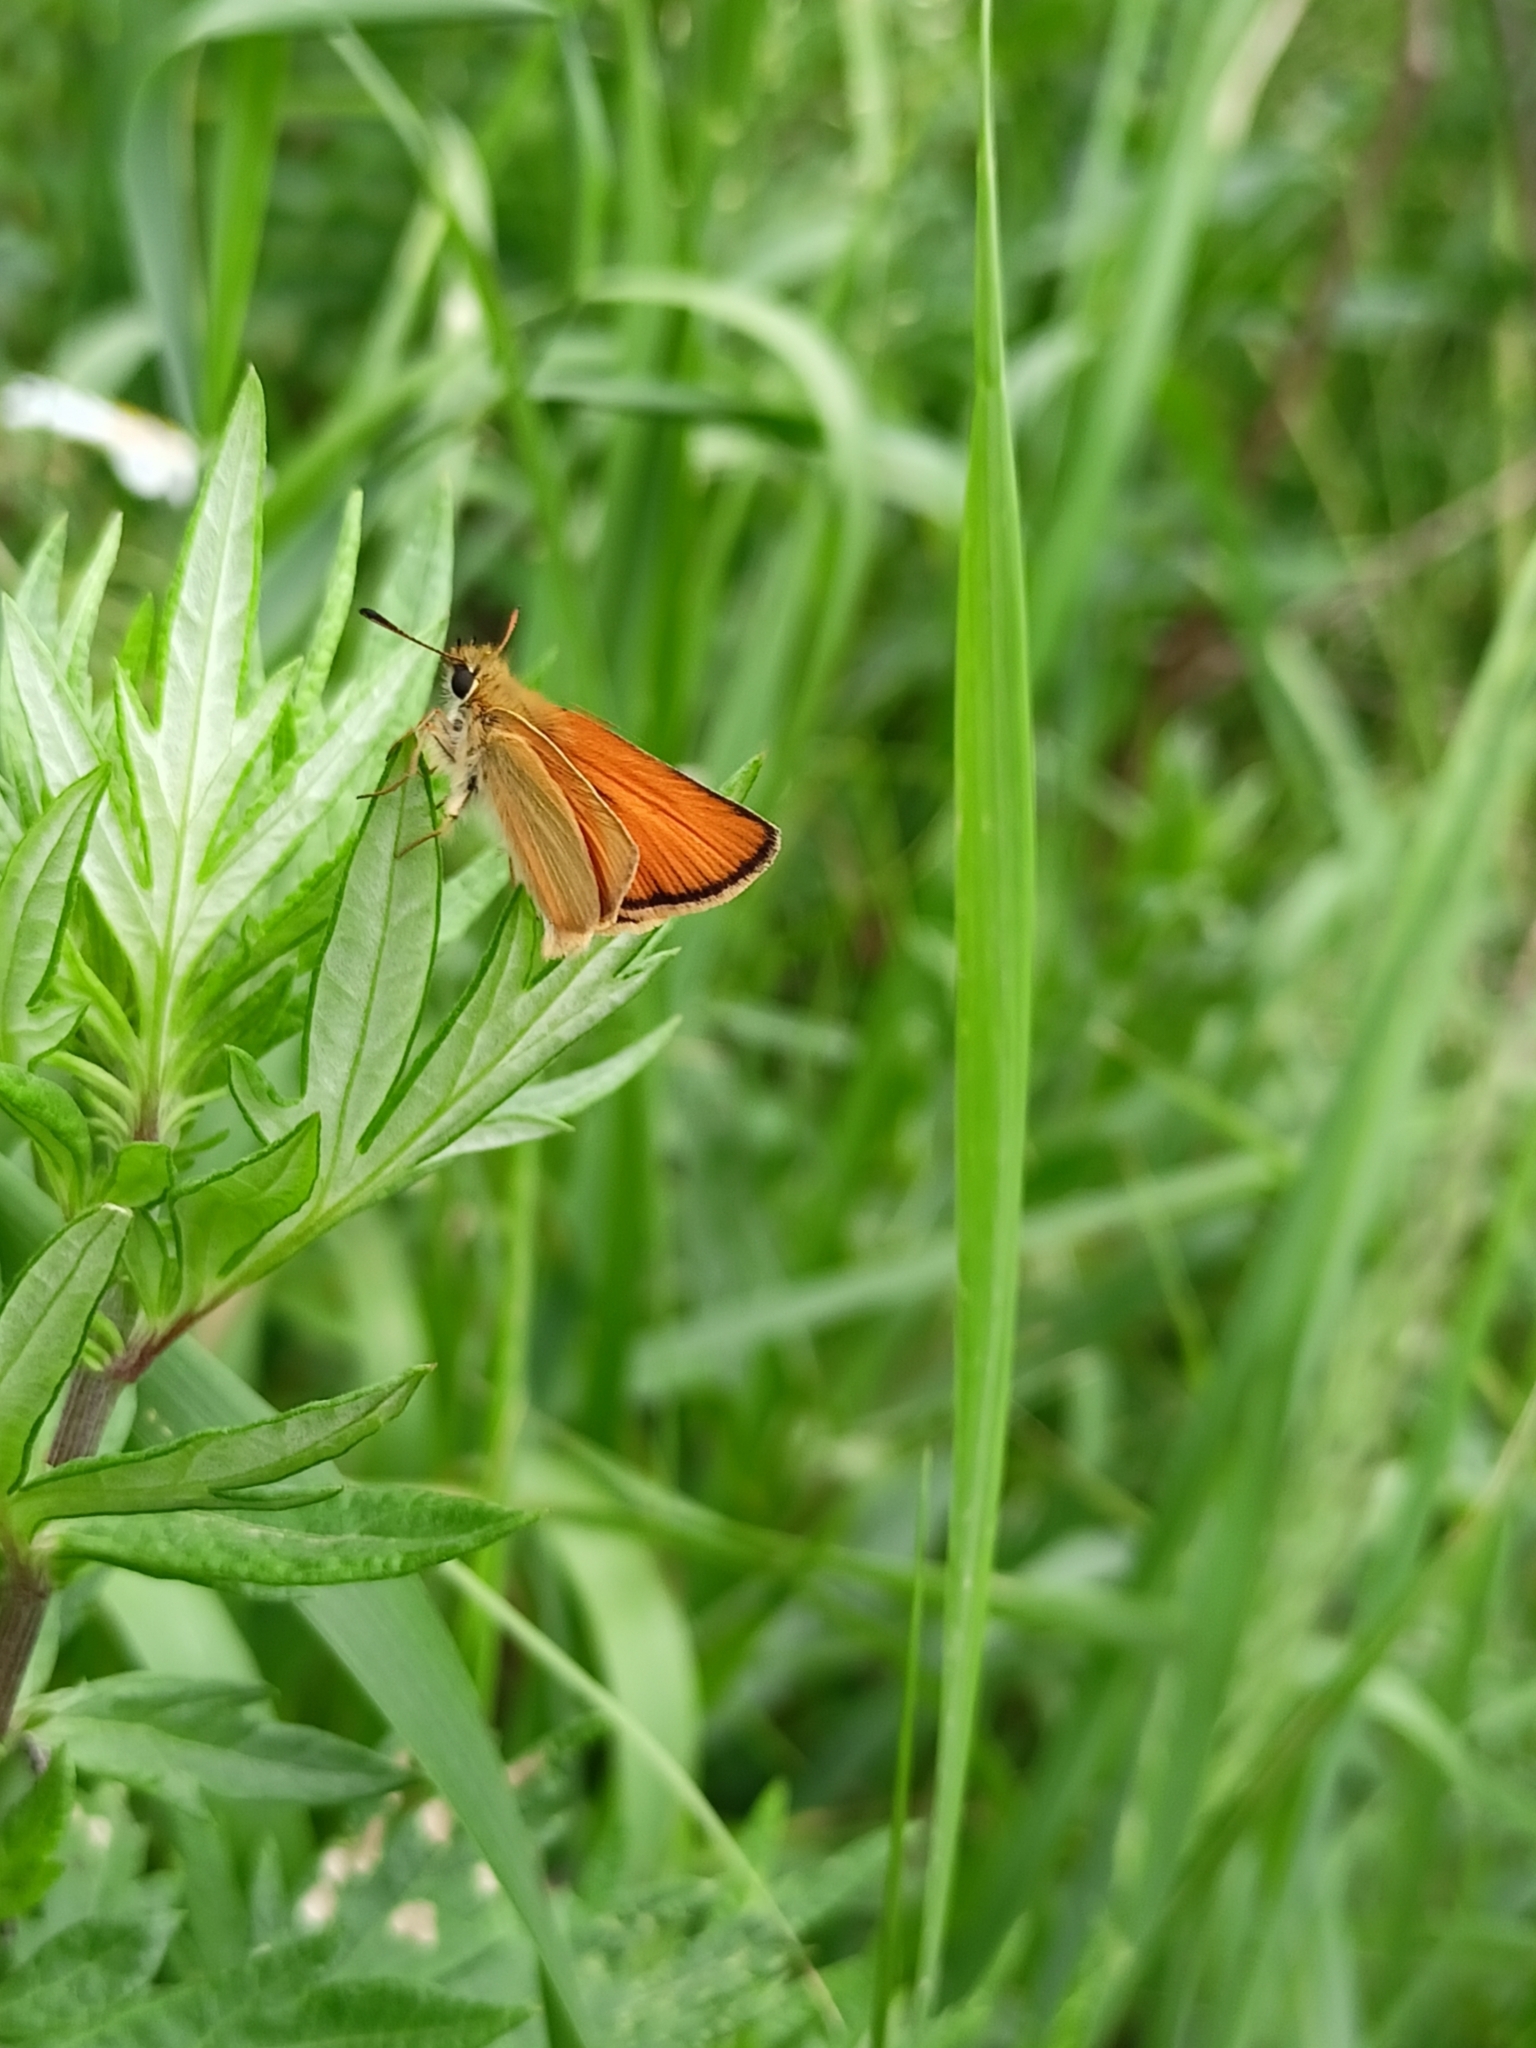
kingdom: Animalia
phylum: Arthropoda
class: Insecta
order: Lepidoptera
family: Hesperiidae
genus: Thymelicus
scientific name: Thymelicus lineola
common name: Essex skipper
